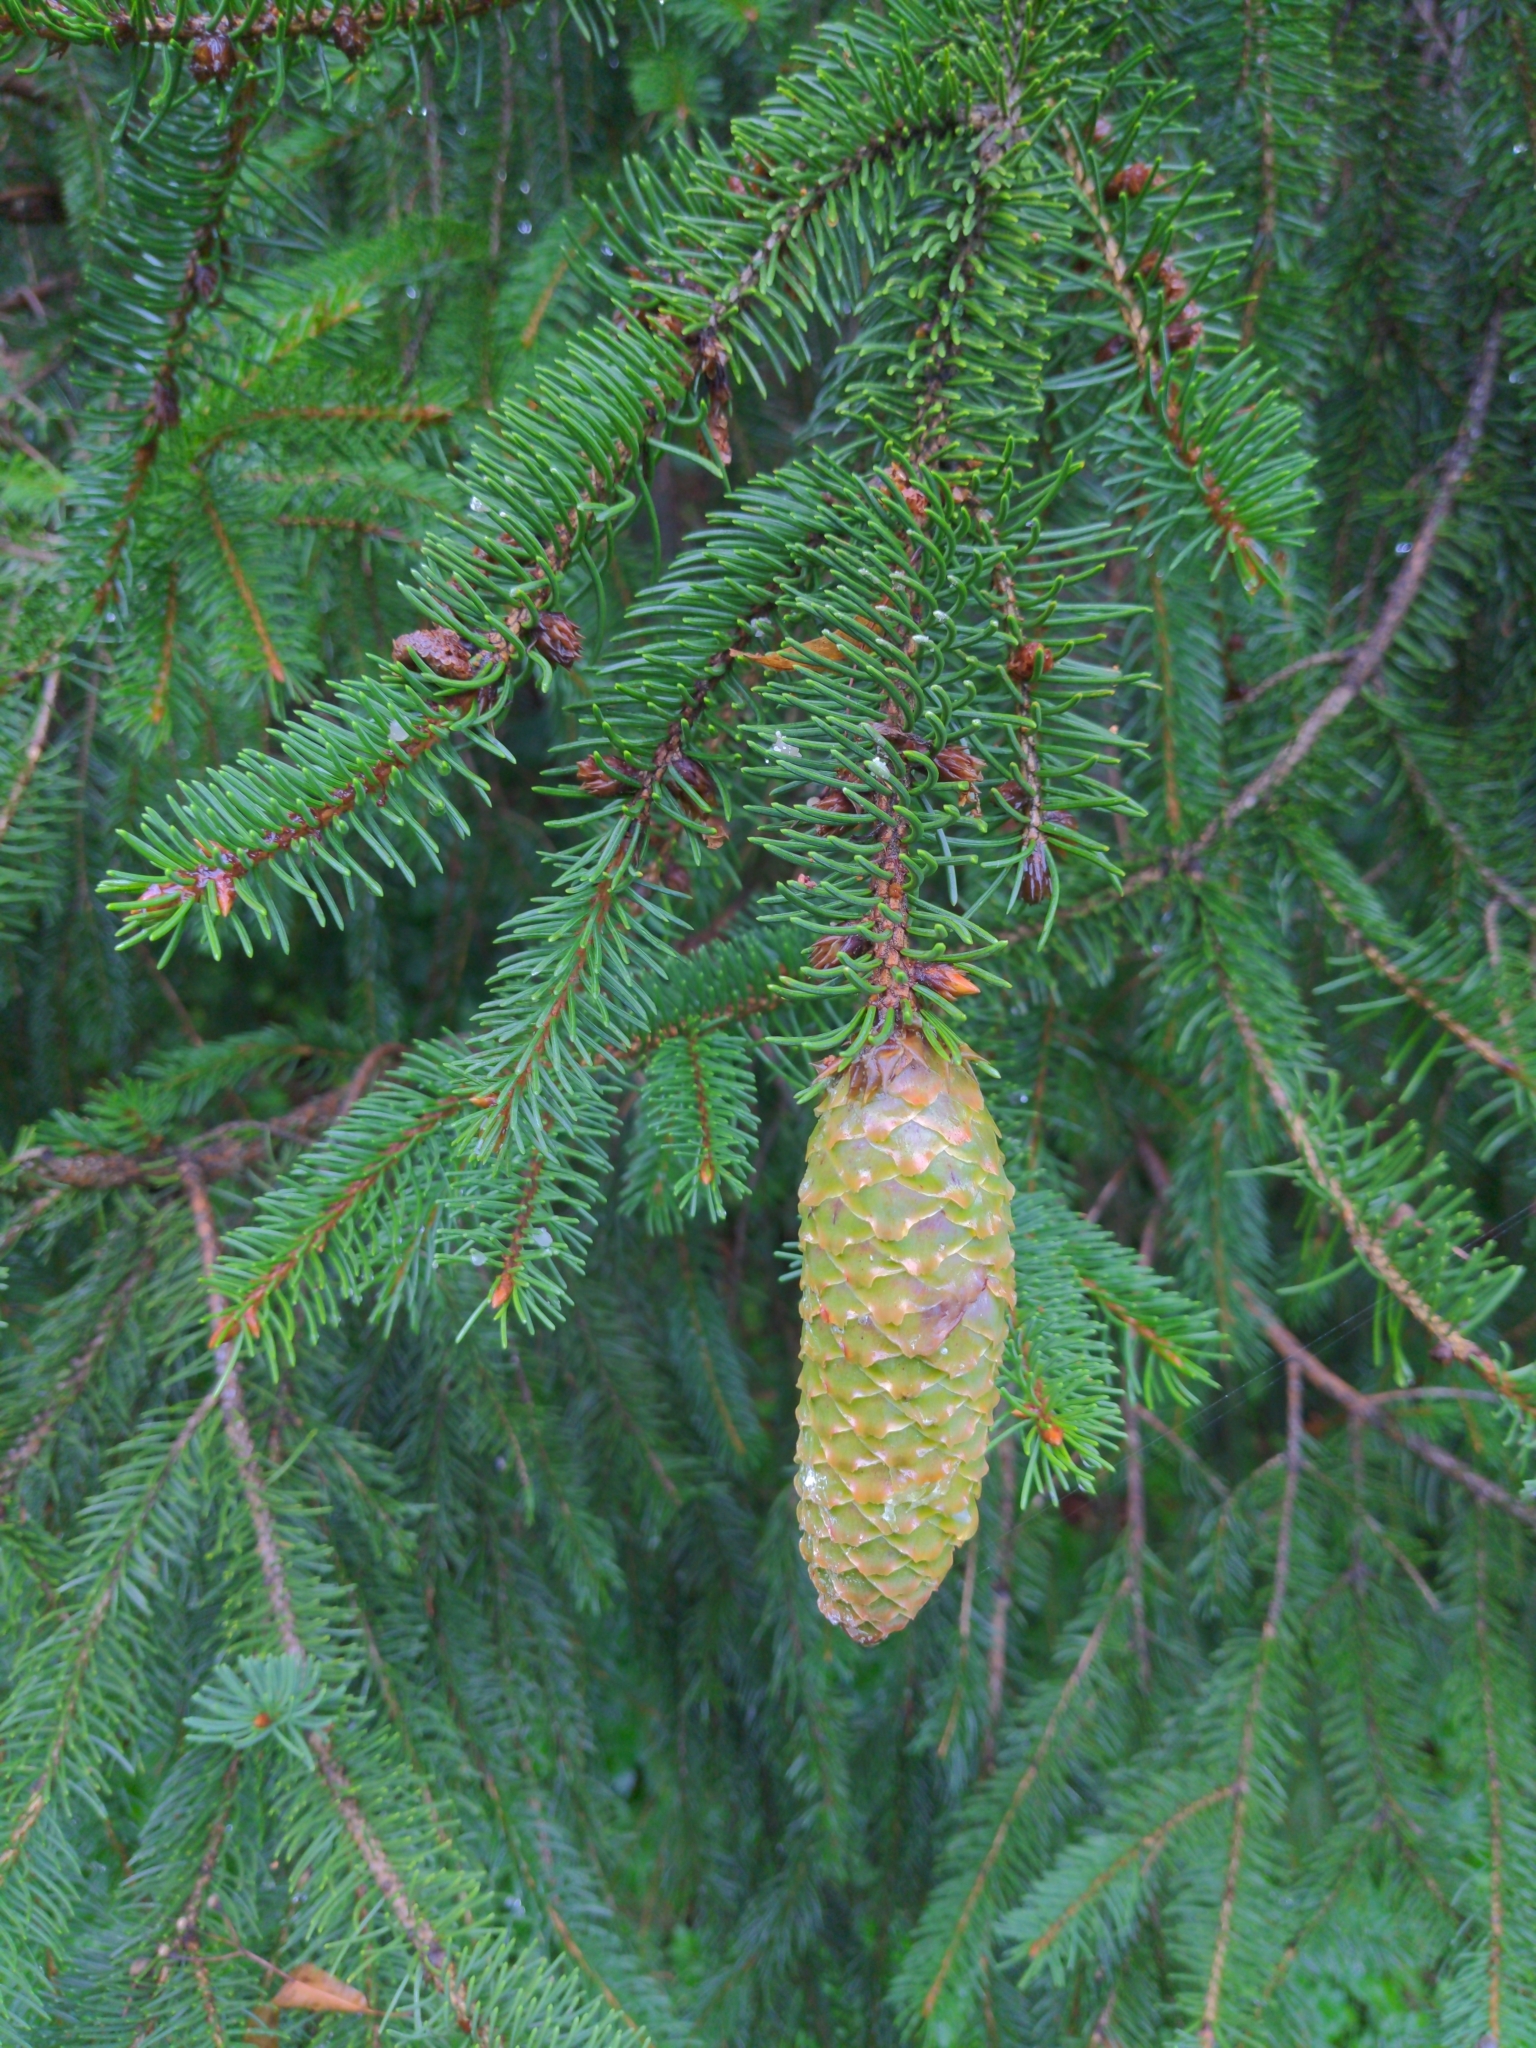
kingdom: Plantae
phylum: Tracheophyta
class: Pinopsida
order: Pinales
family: Pinaceae
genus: Picea
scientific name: Picea abies
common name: Norway spruce
